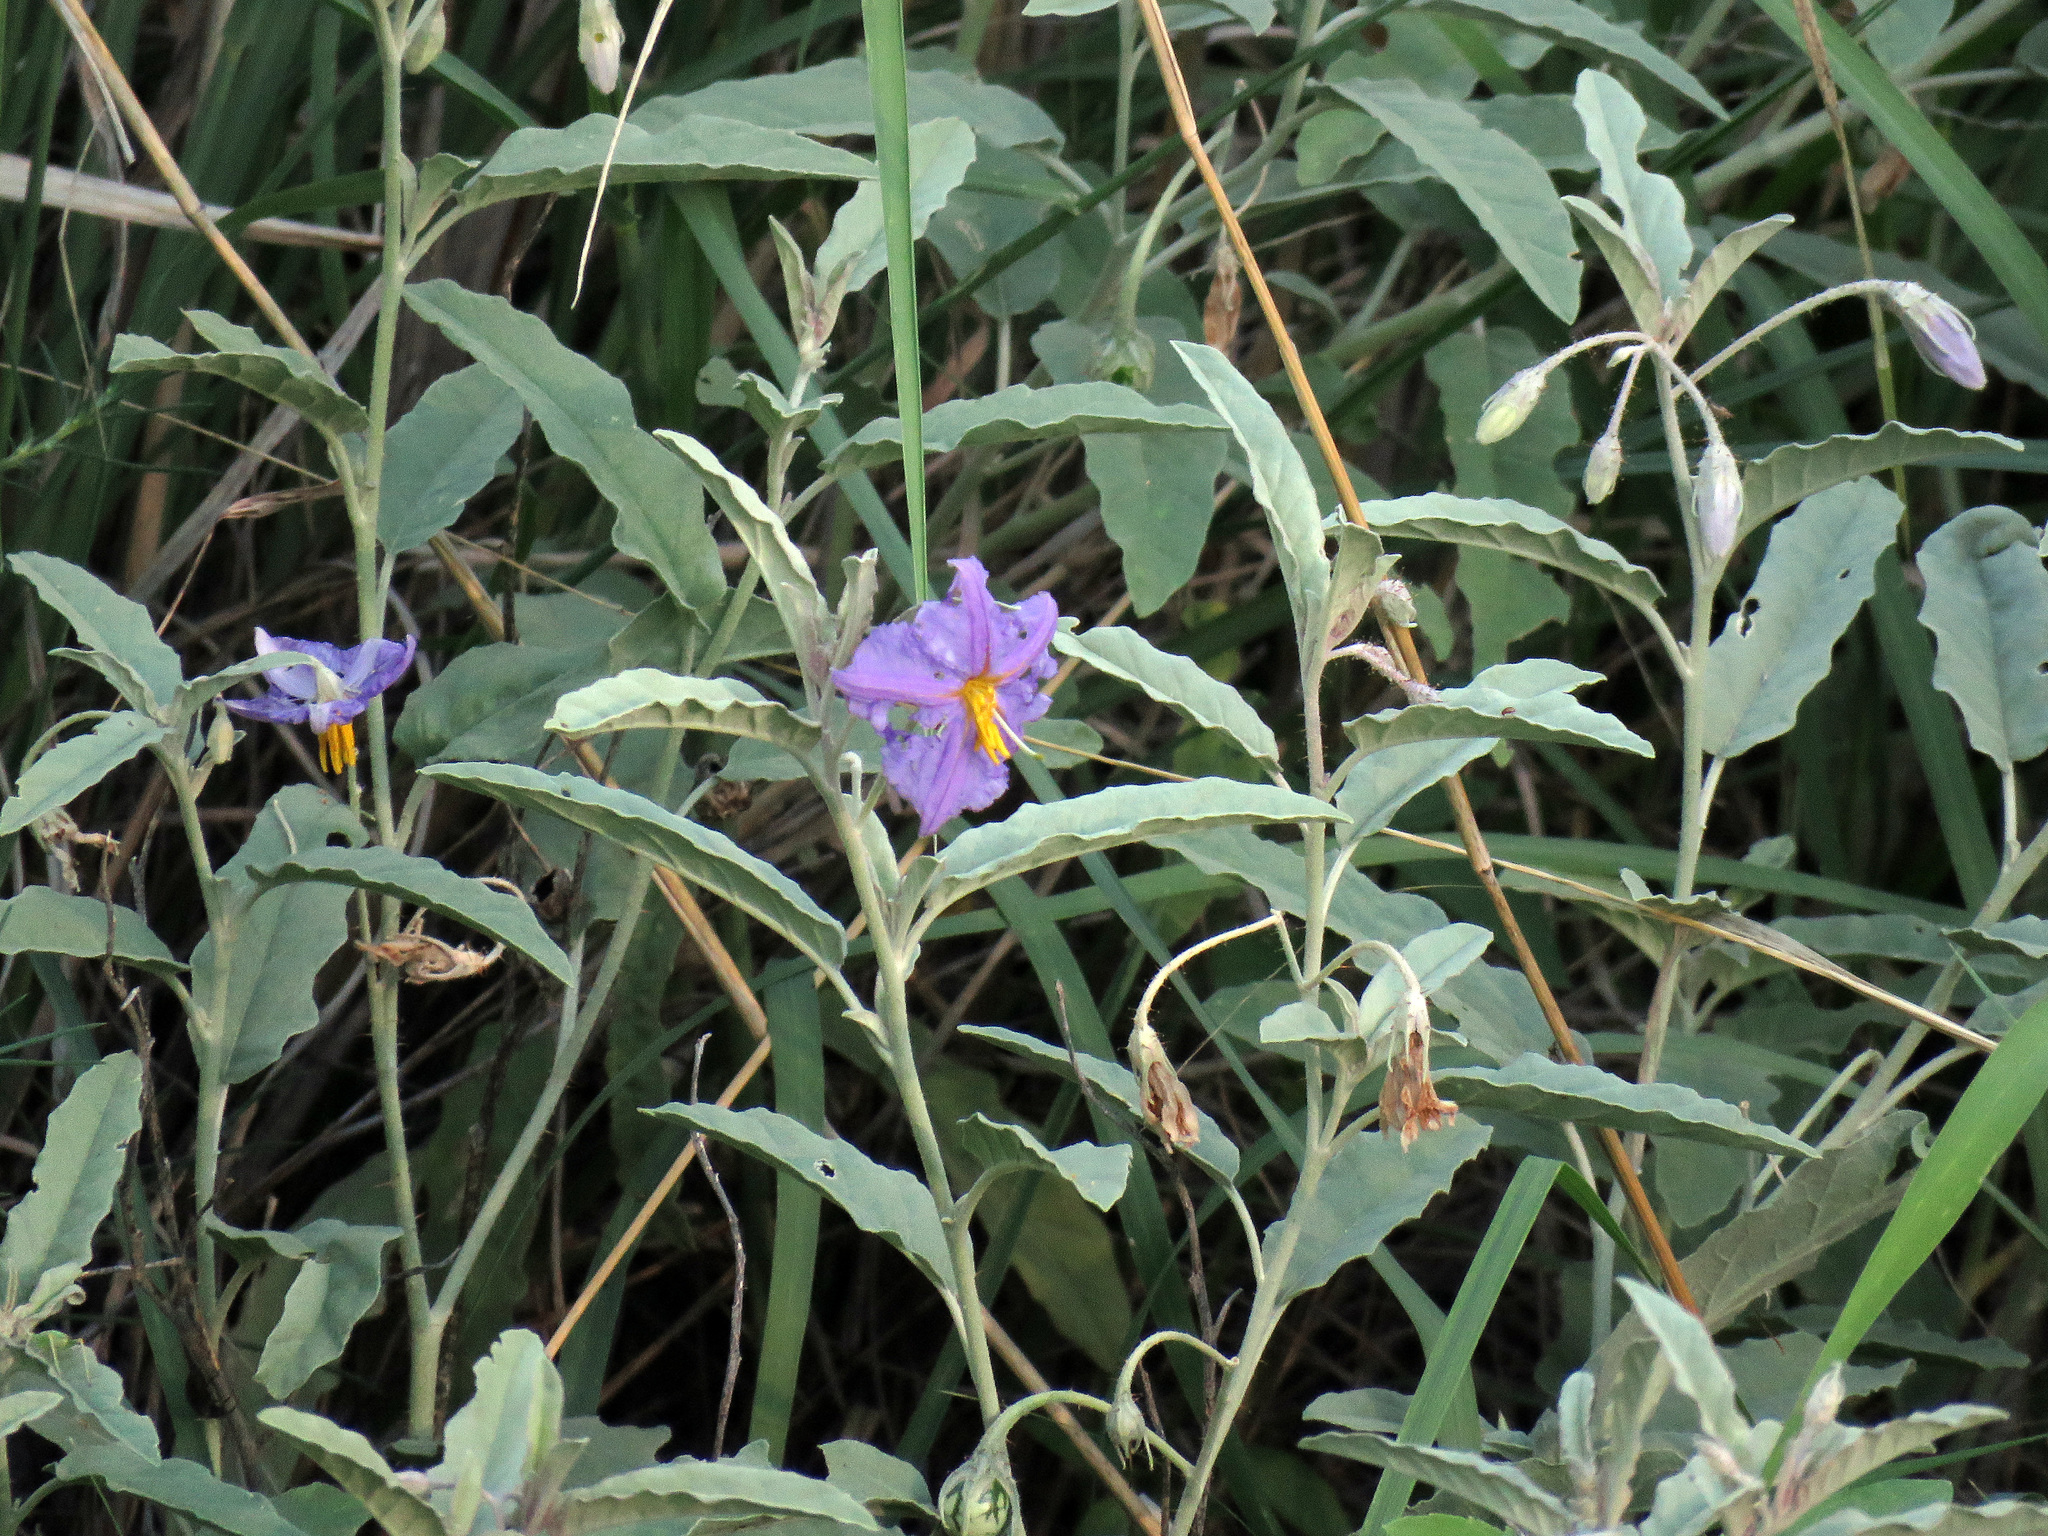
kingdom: Plantae
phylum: Tracheophyta
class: Magnoliopsida
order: Solanales
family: Solanaceae
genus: Solanum
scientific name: Solanum elaeagnifolium
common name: Silverleaf nightshade
